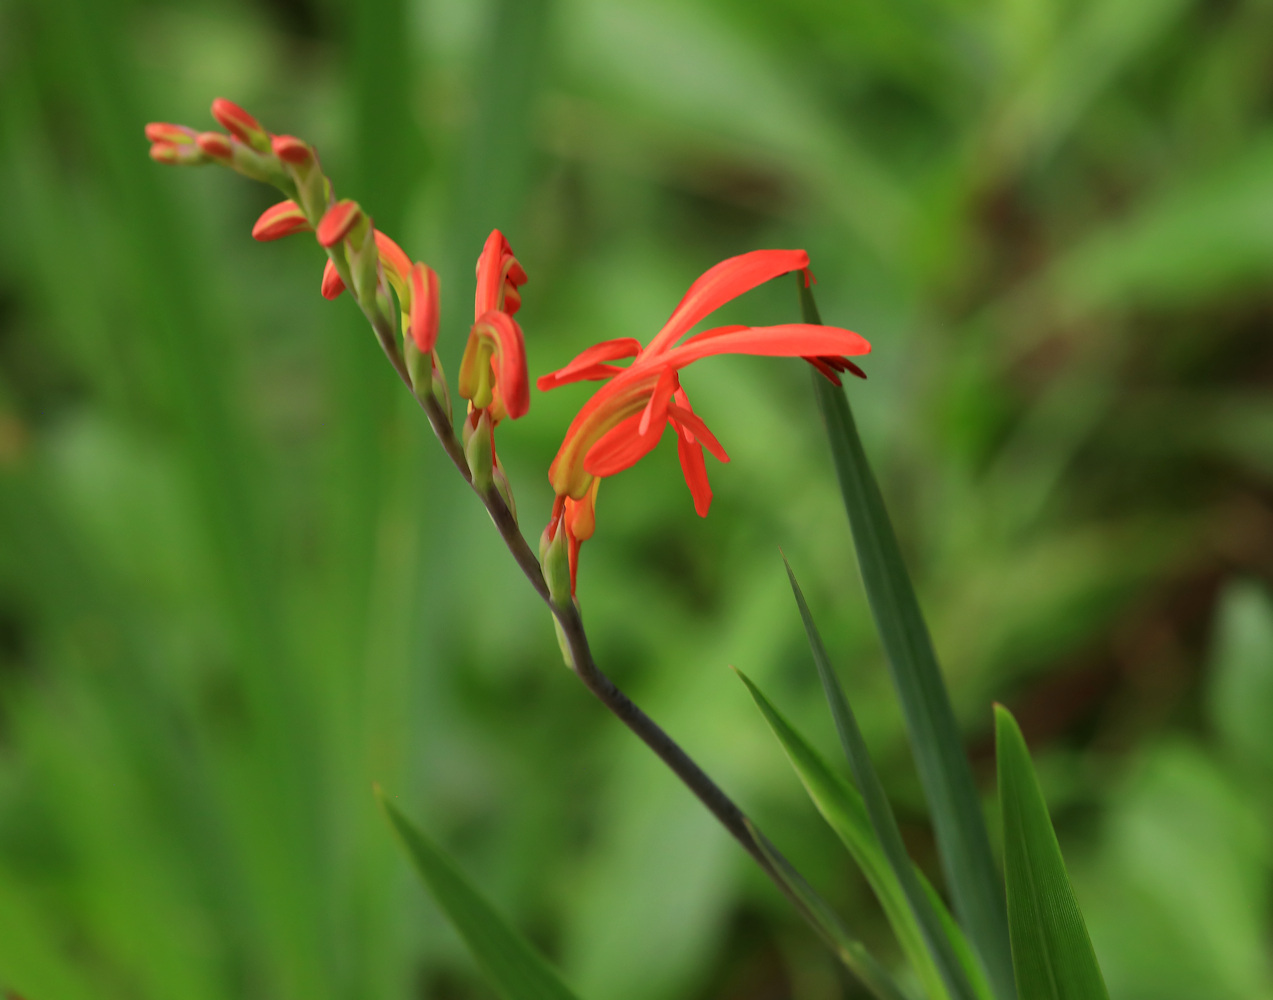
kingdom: Plantae
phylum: Tracheophyta
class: Liliopsida
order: Asparagales
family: Iridaceae
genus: Chasmanthe
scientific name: Chasmanthe aethiopica
